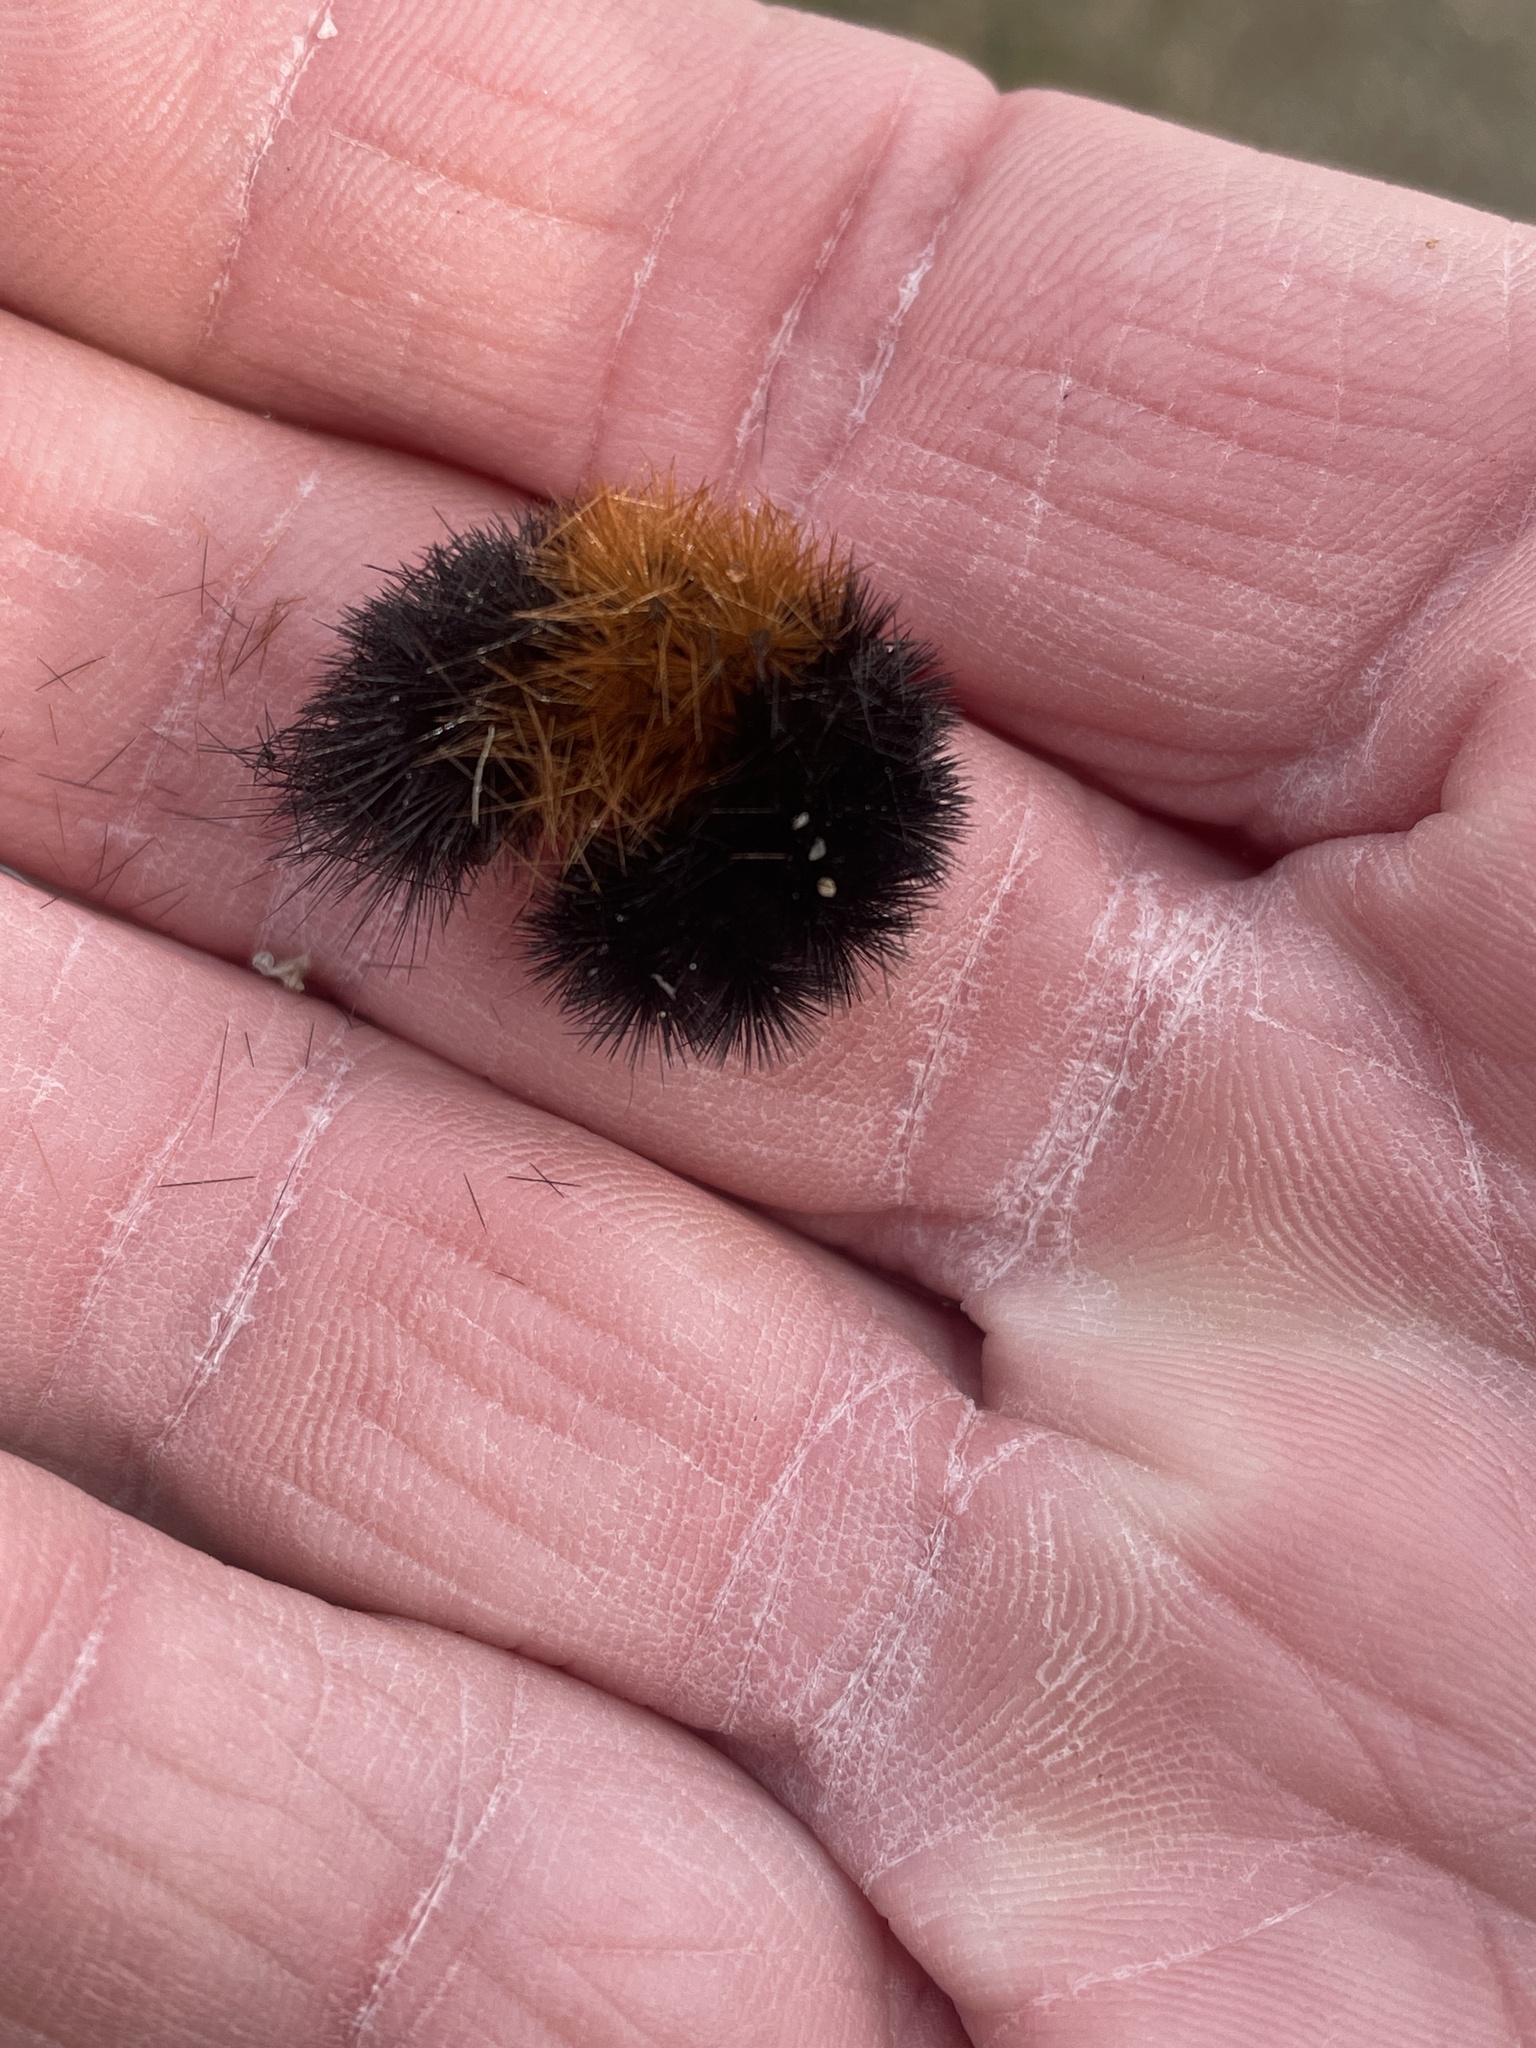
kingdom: Animalia
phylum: Arthropoda
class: Insecta
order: Lepidoptera
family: Erebidae
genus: Pyrrharctia
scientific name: Pyrrharctia isabella
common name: Isabella tiger moth
